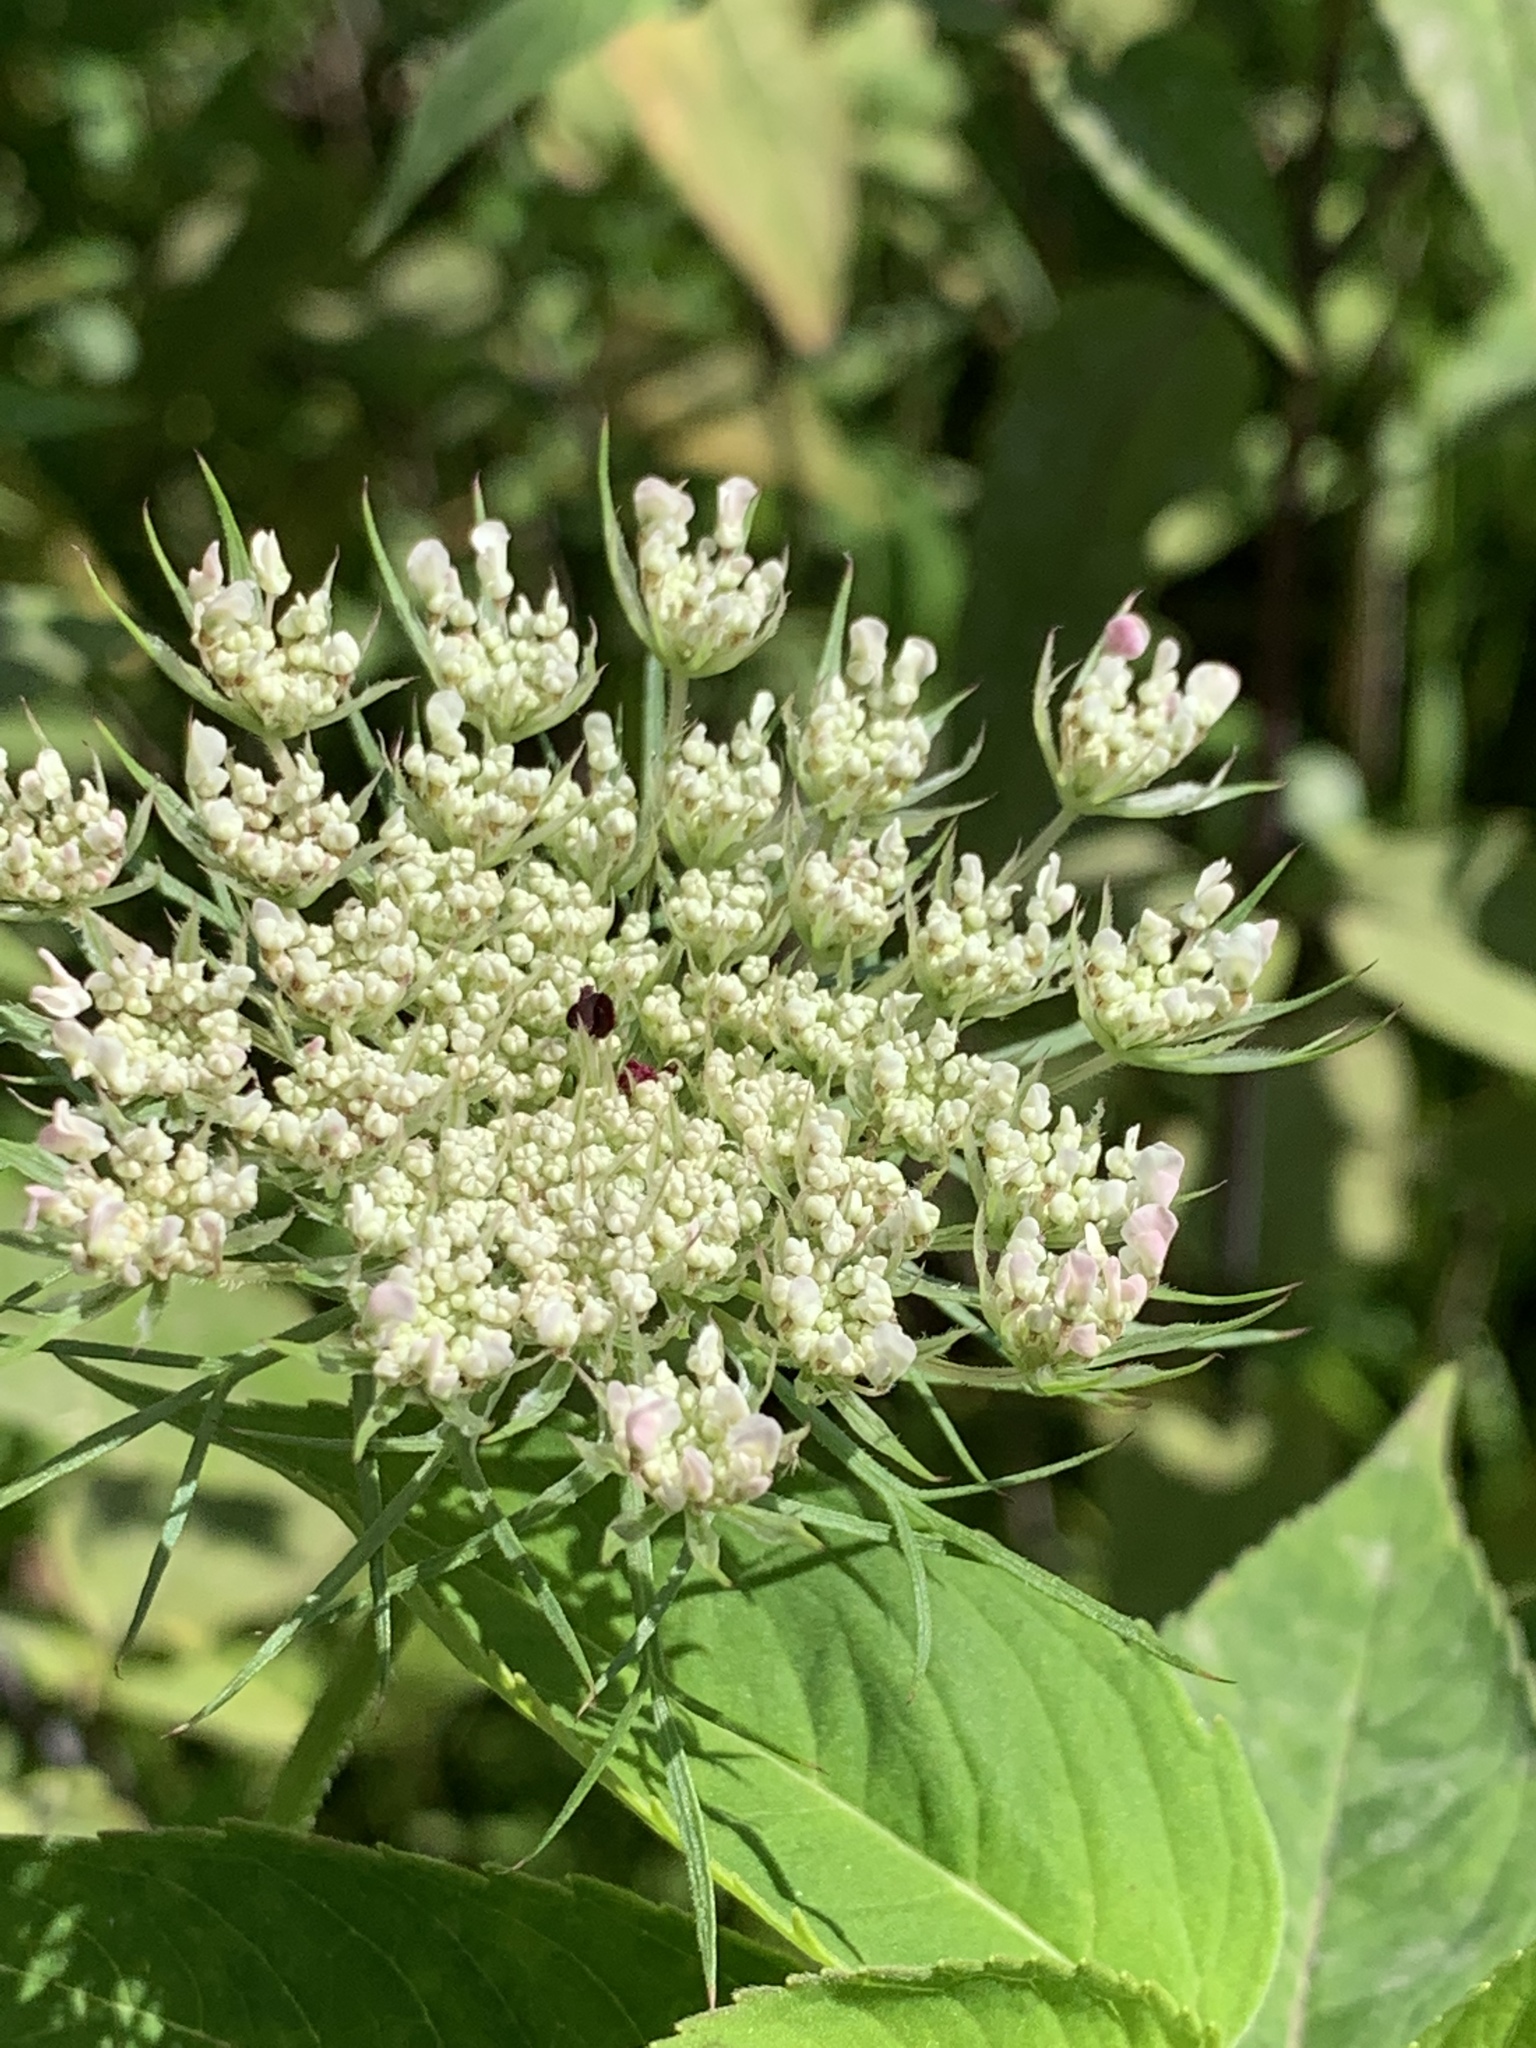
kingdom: Plantae
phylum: Tracheophyta
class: Magnoliopsida
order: Apiales
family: Apiaceae
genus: Daucus
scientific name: Daucus carota
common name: Wild carrot
